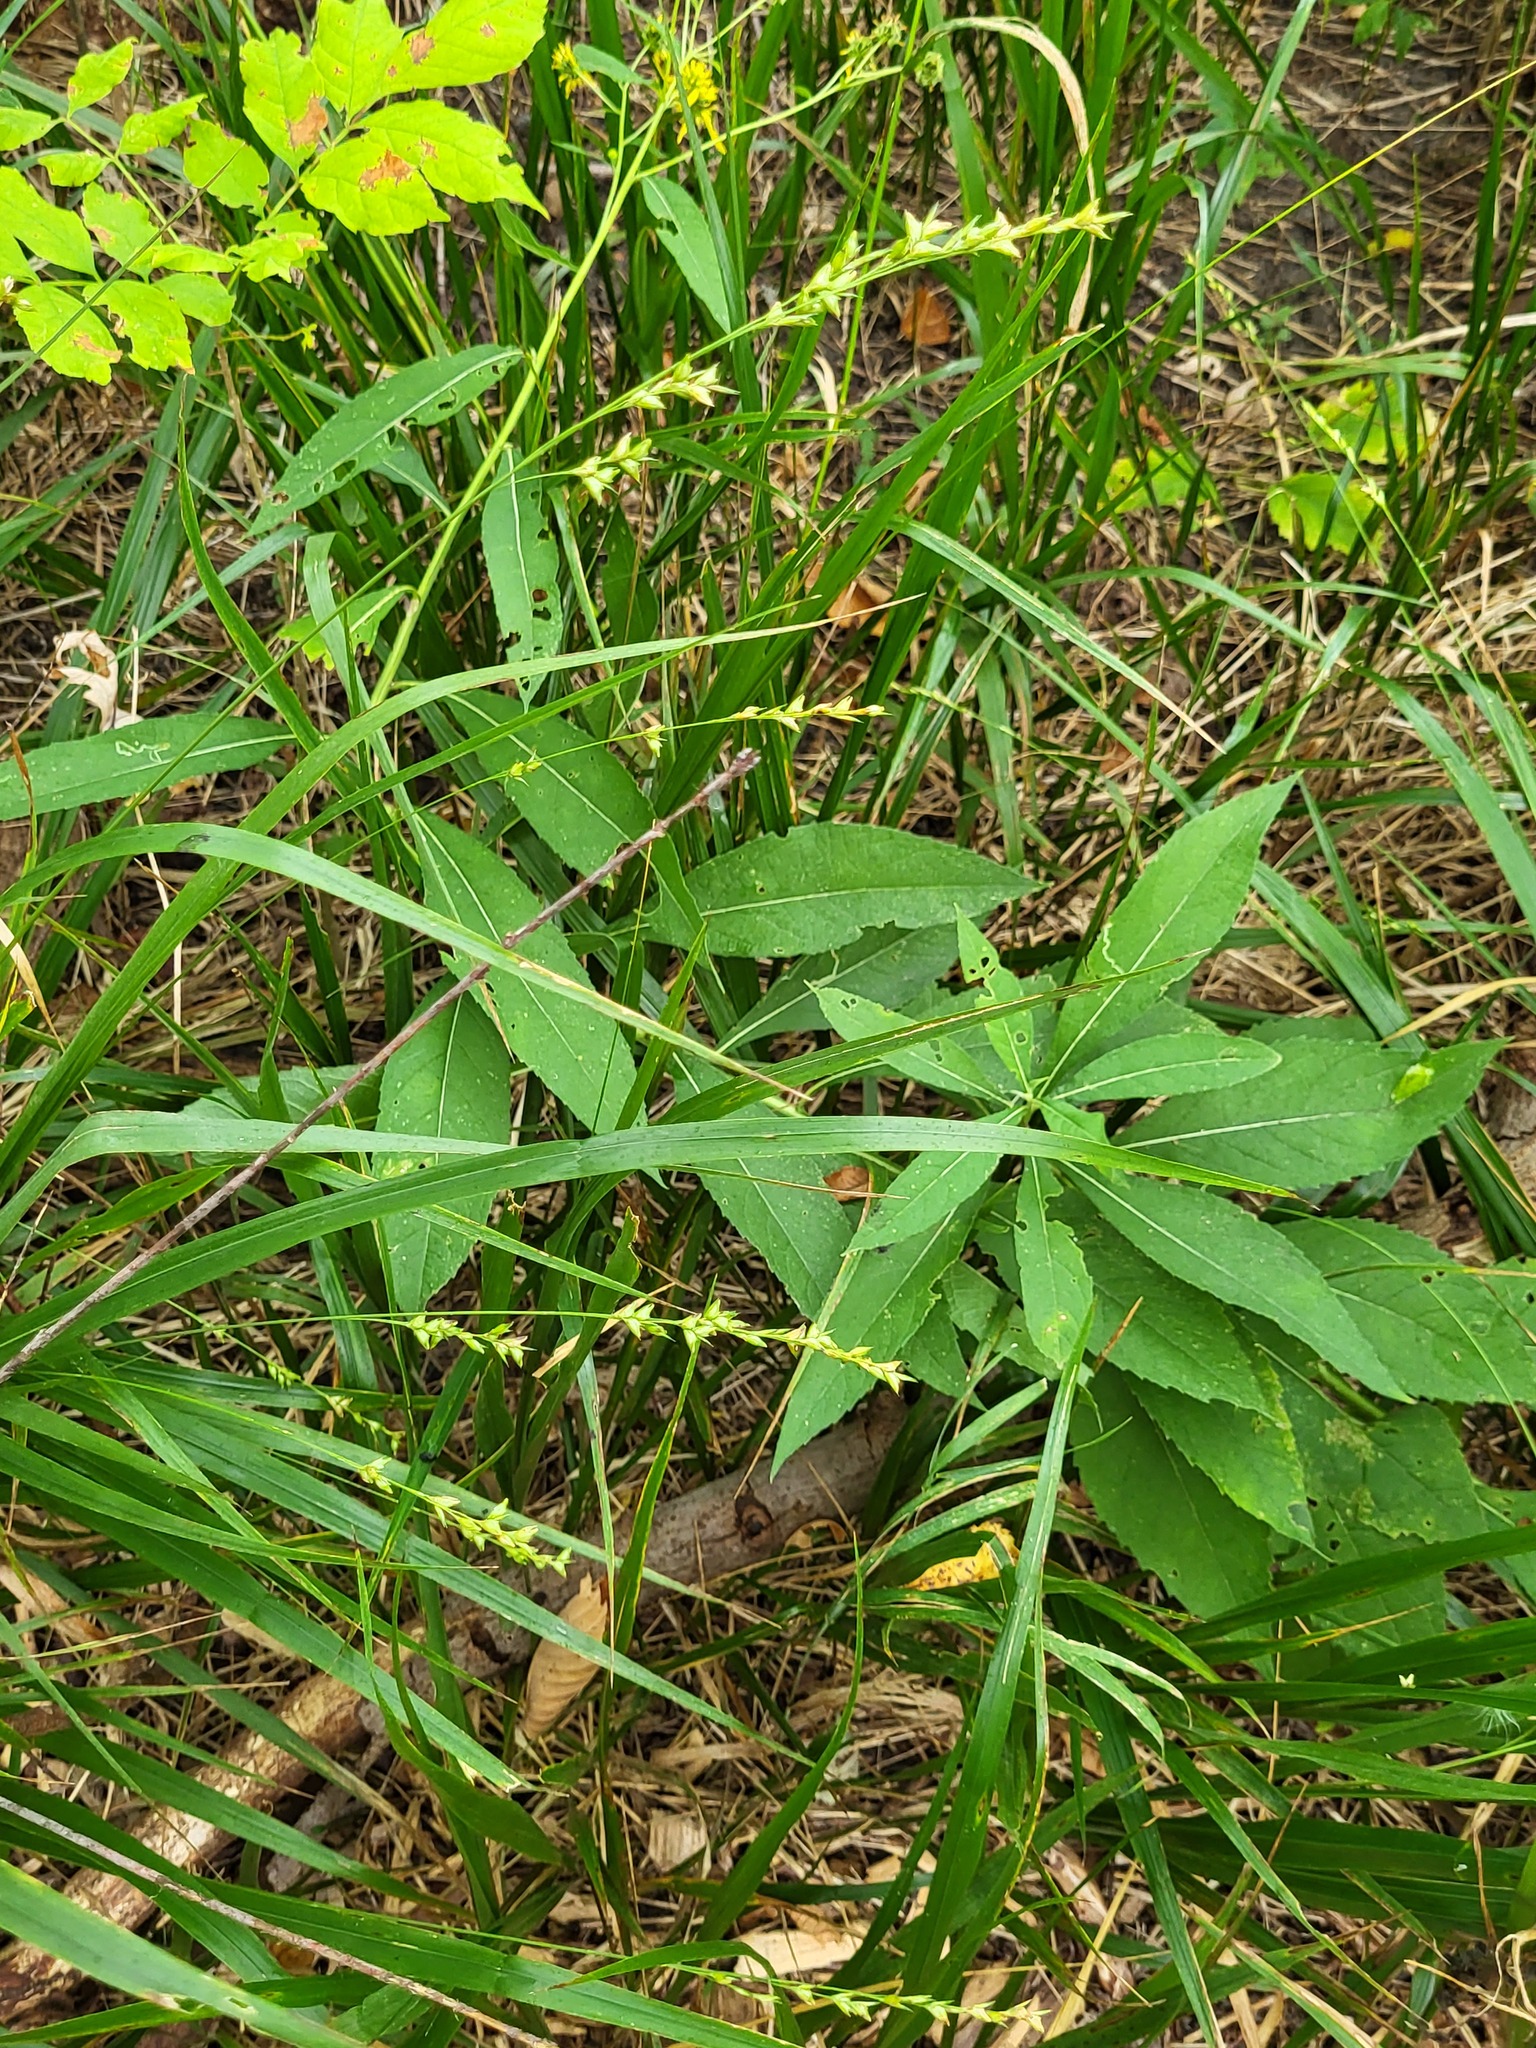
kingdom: Plantae
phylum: Tracheophyta
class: Liliopsida
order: Poales
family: Poaceae
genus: Diarrhena
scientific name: Diarrhena obovata
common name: Beakgrass
